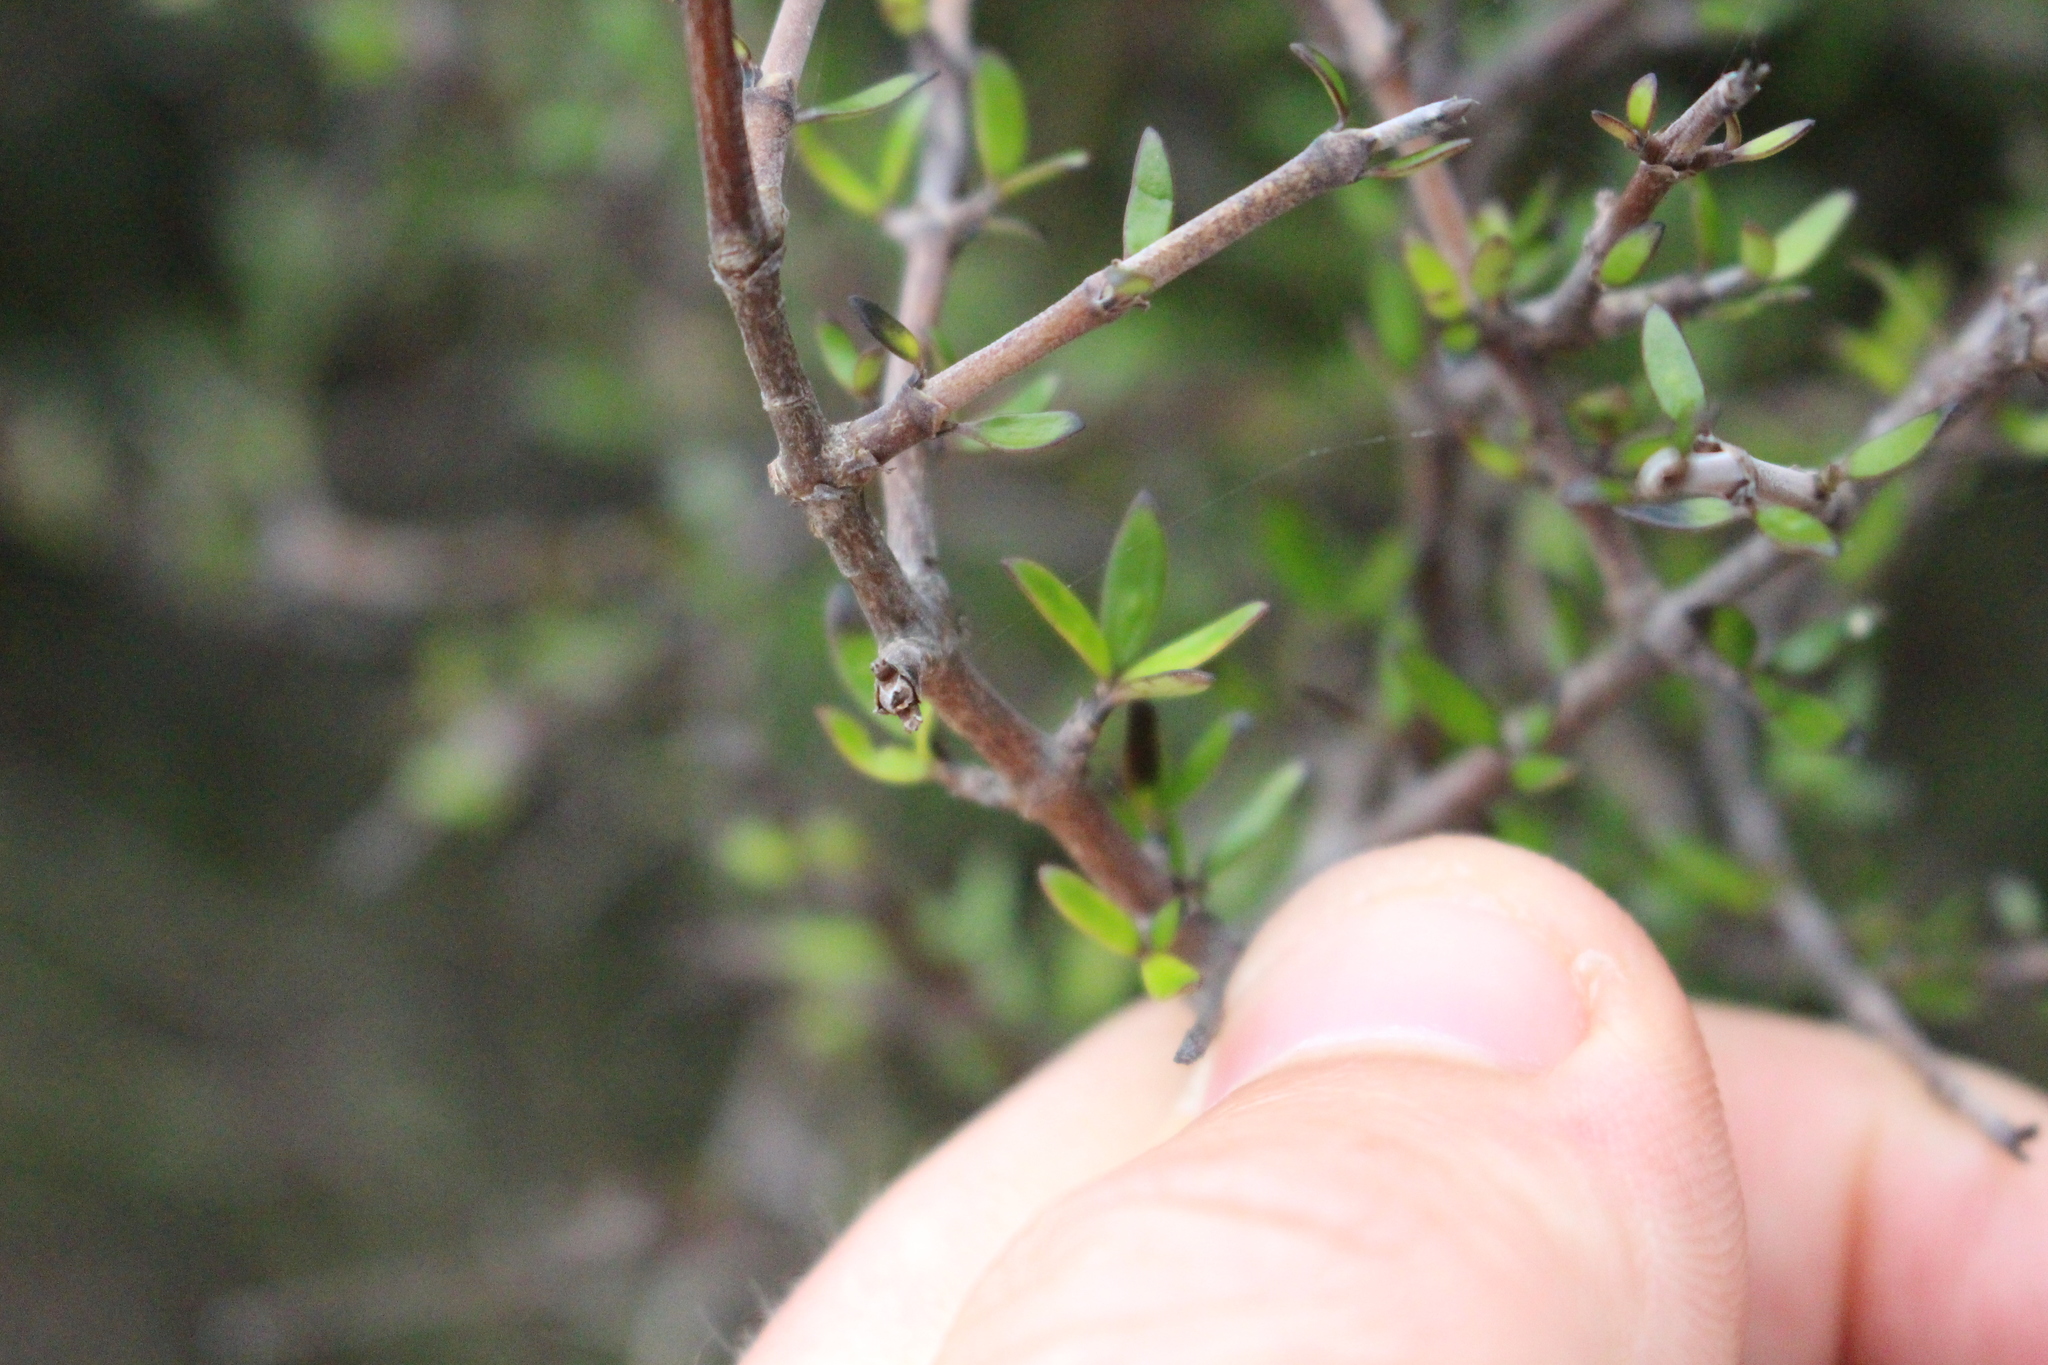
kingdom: Plantae
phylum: Tracheophyta
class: Magnoliopsida
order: Gentianales
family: Rubiaceae
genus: Coprosma
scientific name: Coprosma propinqua
